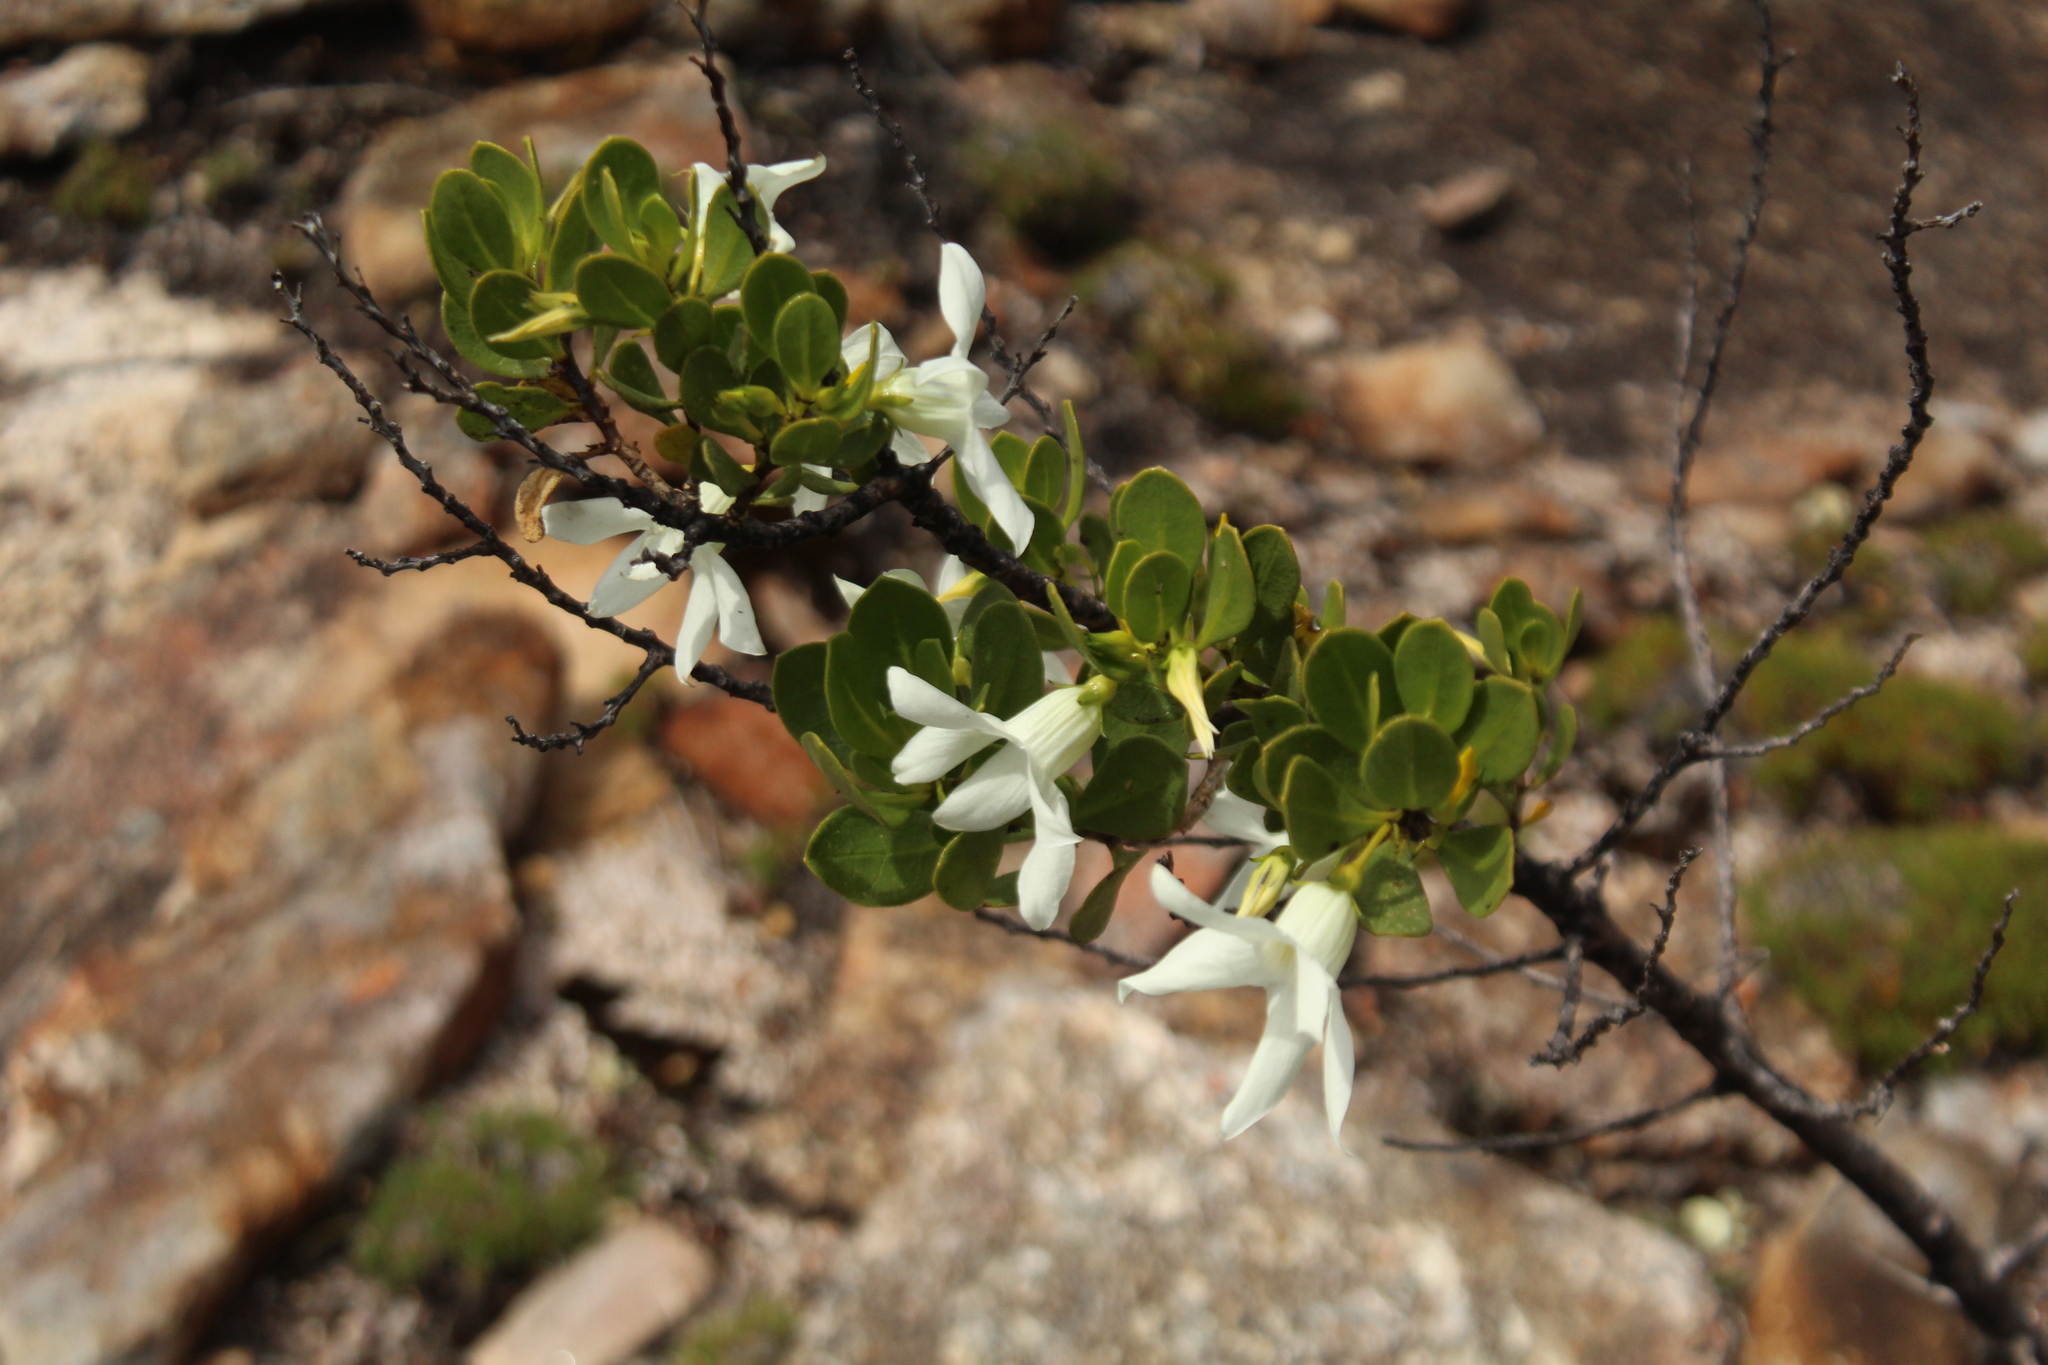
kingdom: Plantae
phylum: Tracheophyta
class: Magnoliopsida
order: Solanales
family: Solanaceae
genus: Anthocercis
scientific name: Anthocercis viscosa
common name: Sticky tailflower
